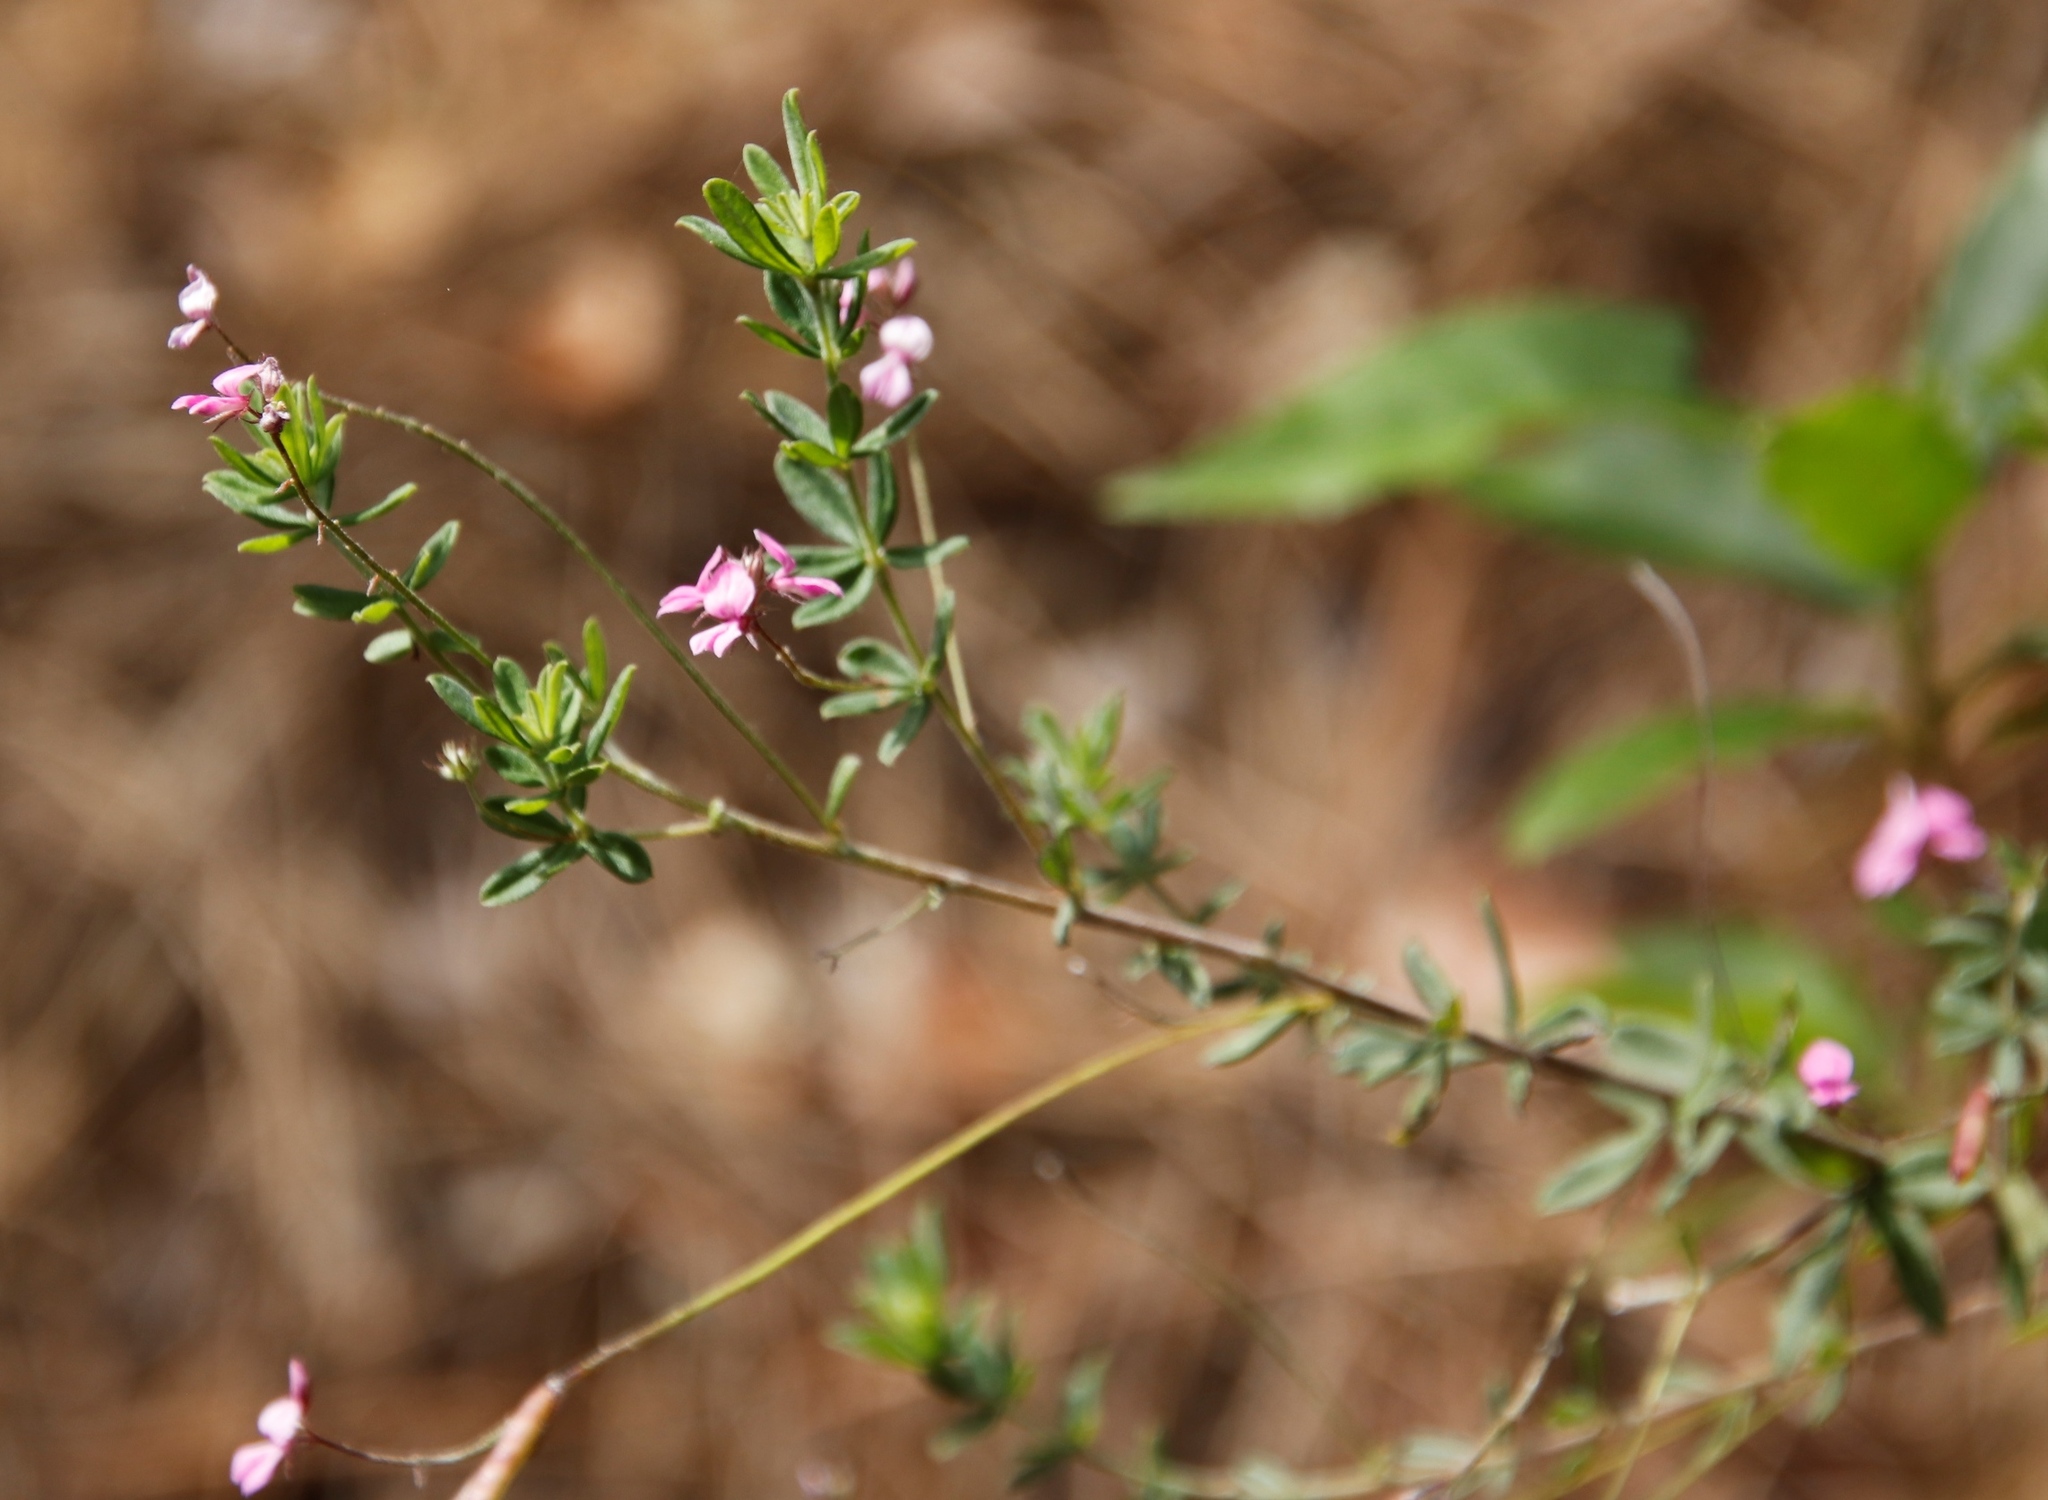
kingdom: Plantae
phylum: Tracheophyta
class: Magnoliopsida
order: Fabales
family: Fabaceae
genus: Indigofera
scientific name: Indigofera filiformis
